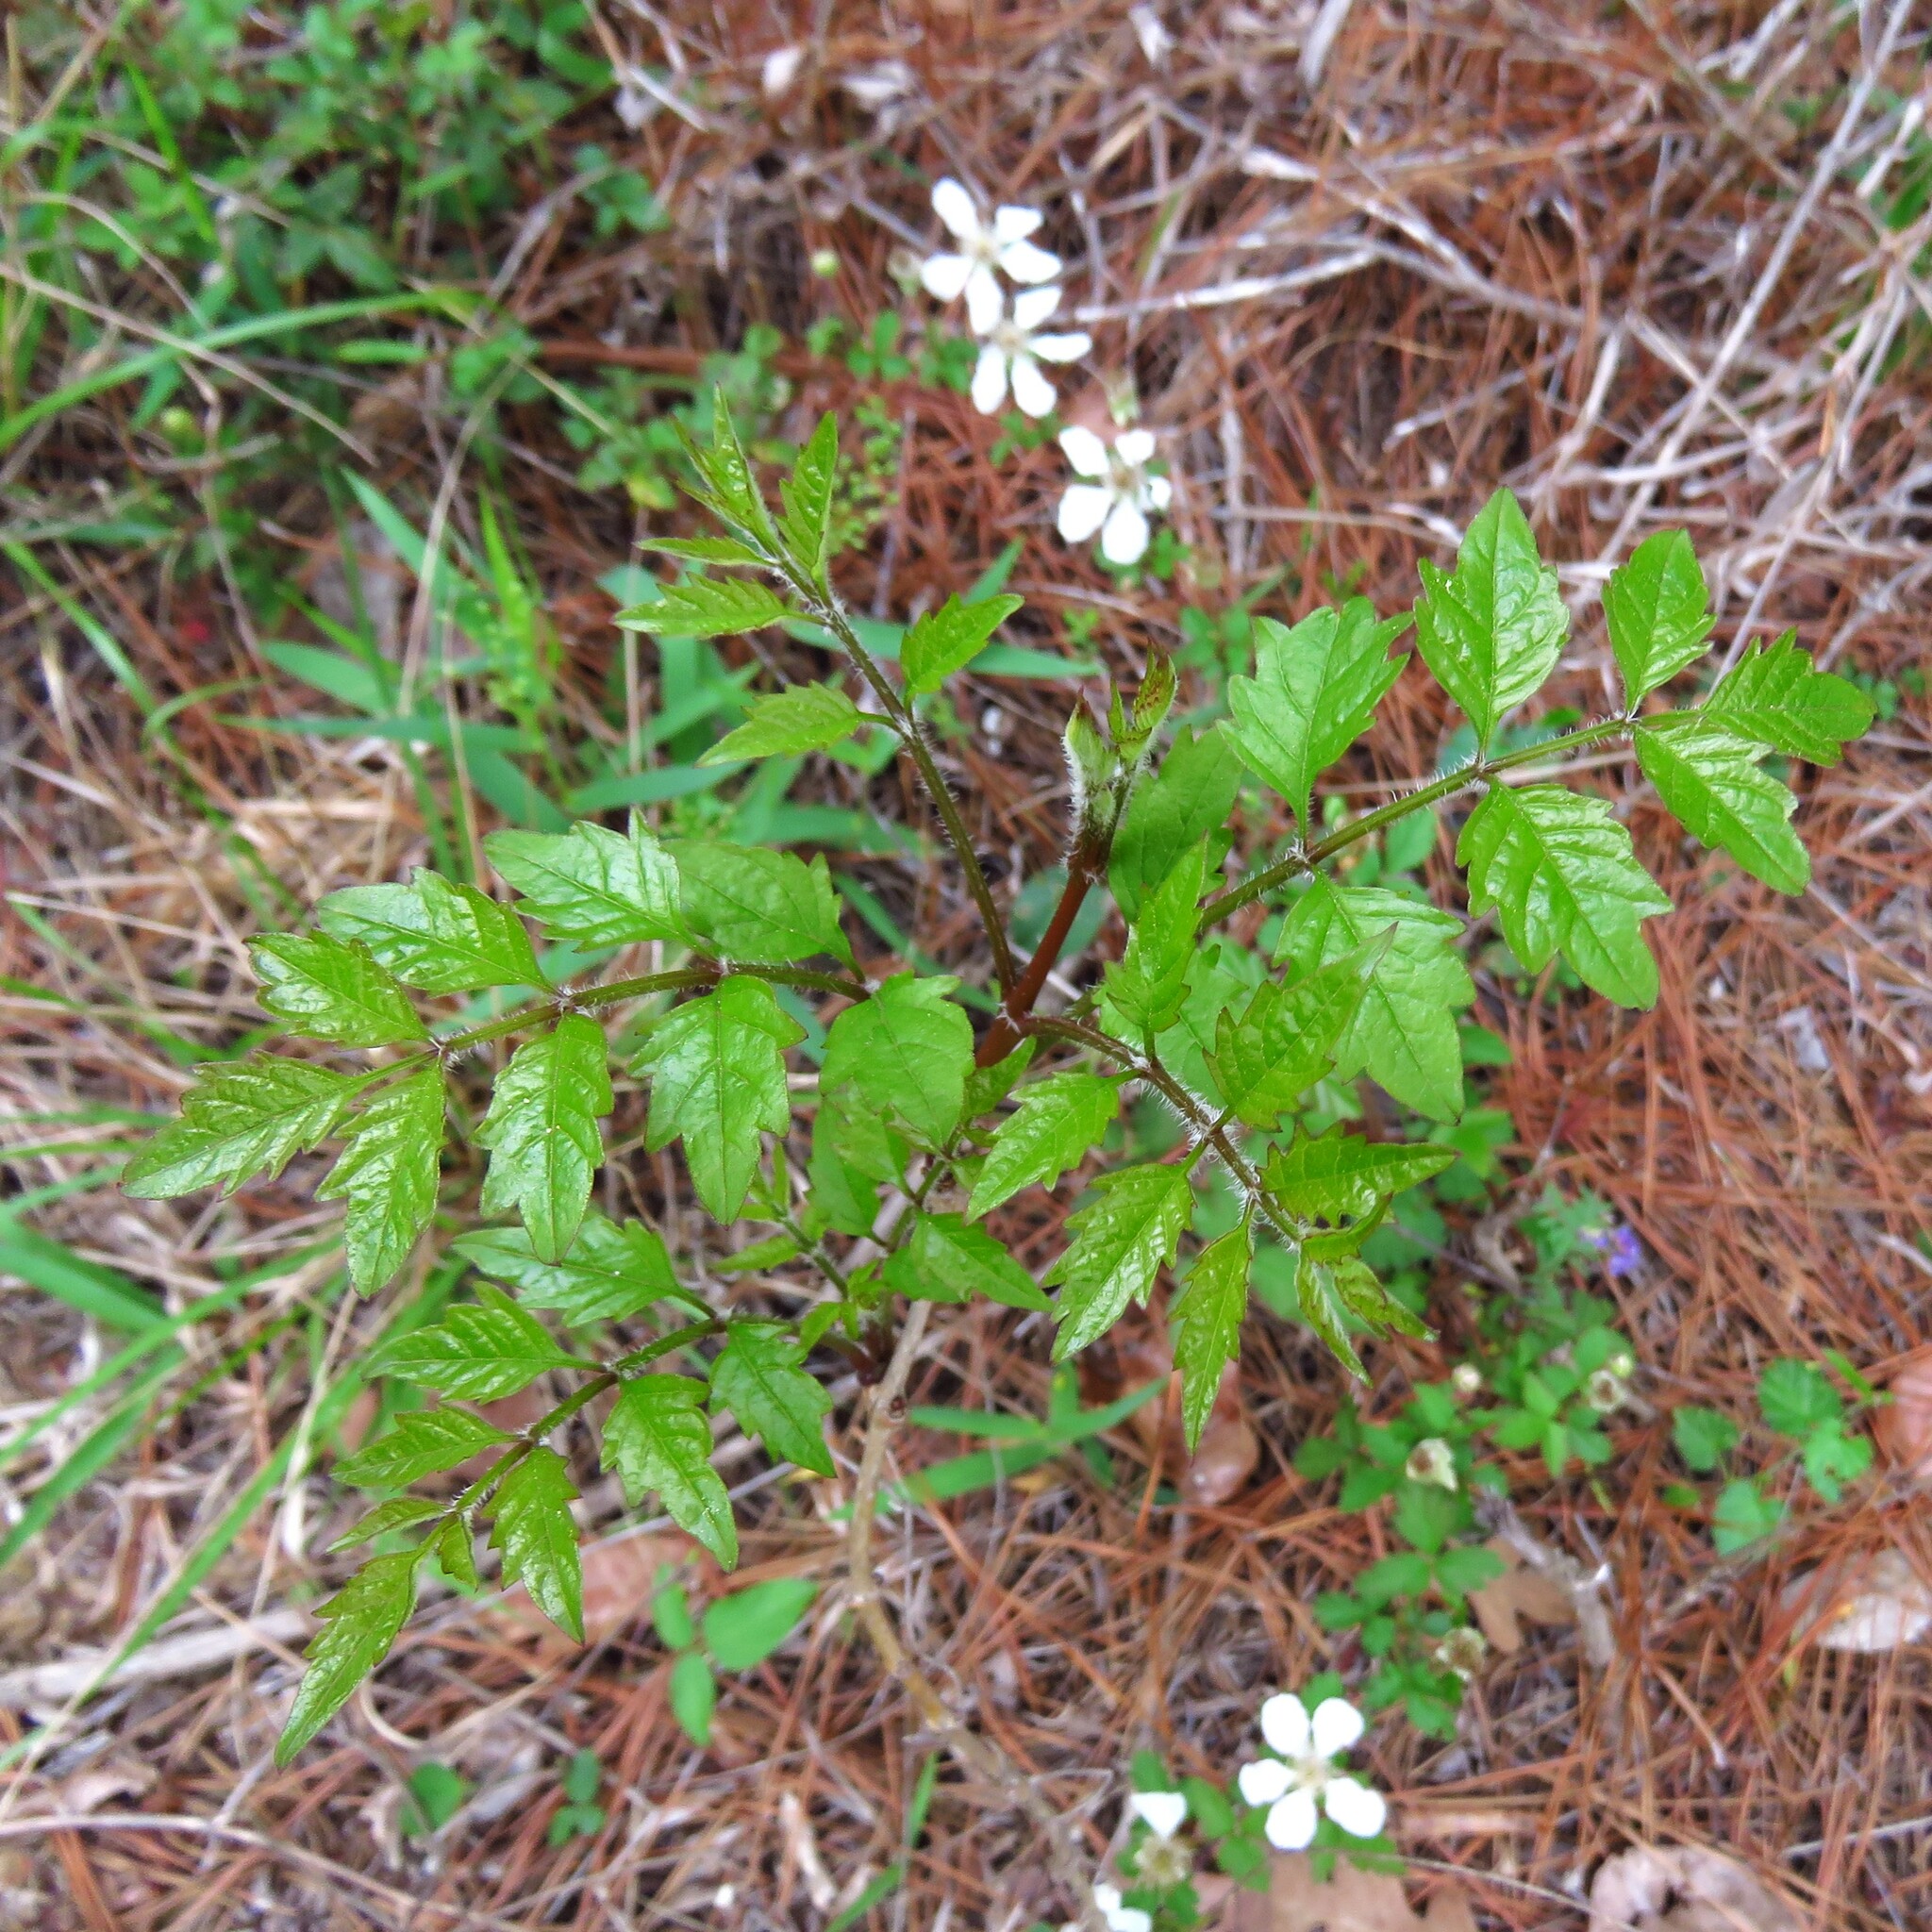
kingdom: Plantae
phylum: Tracheophyta
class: Magnoliopsida
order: Lamiales
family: Bignoniaceae
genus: Campsis
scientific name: Campsis radicans
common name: Trumpet-creeper
